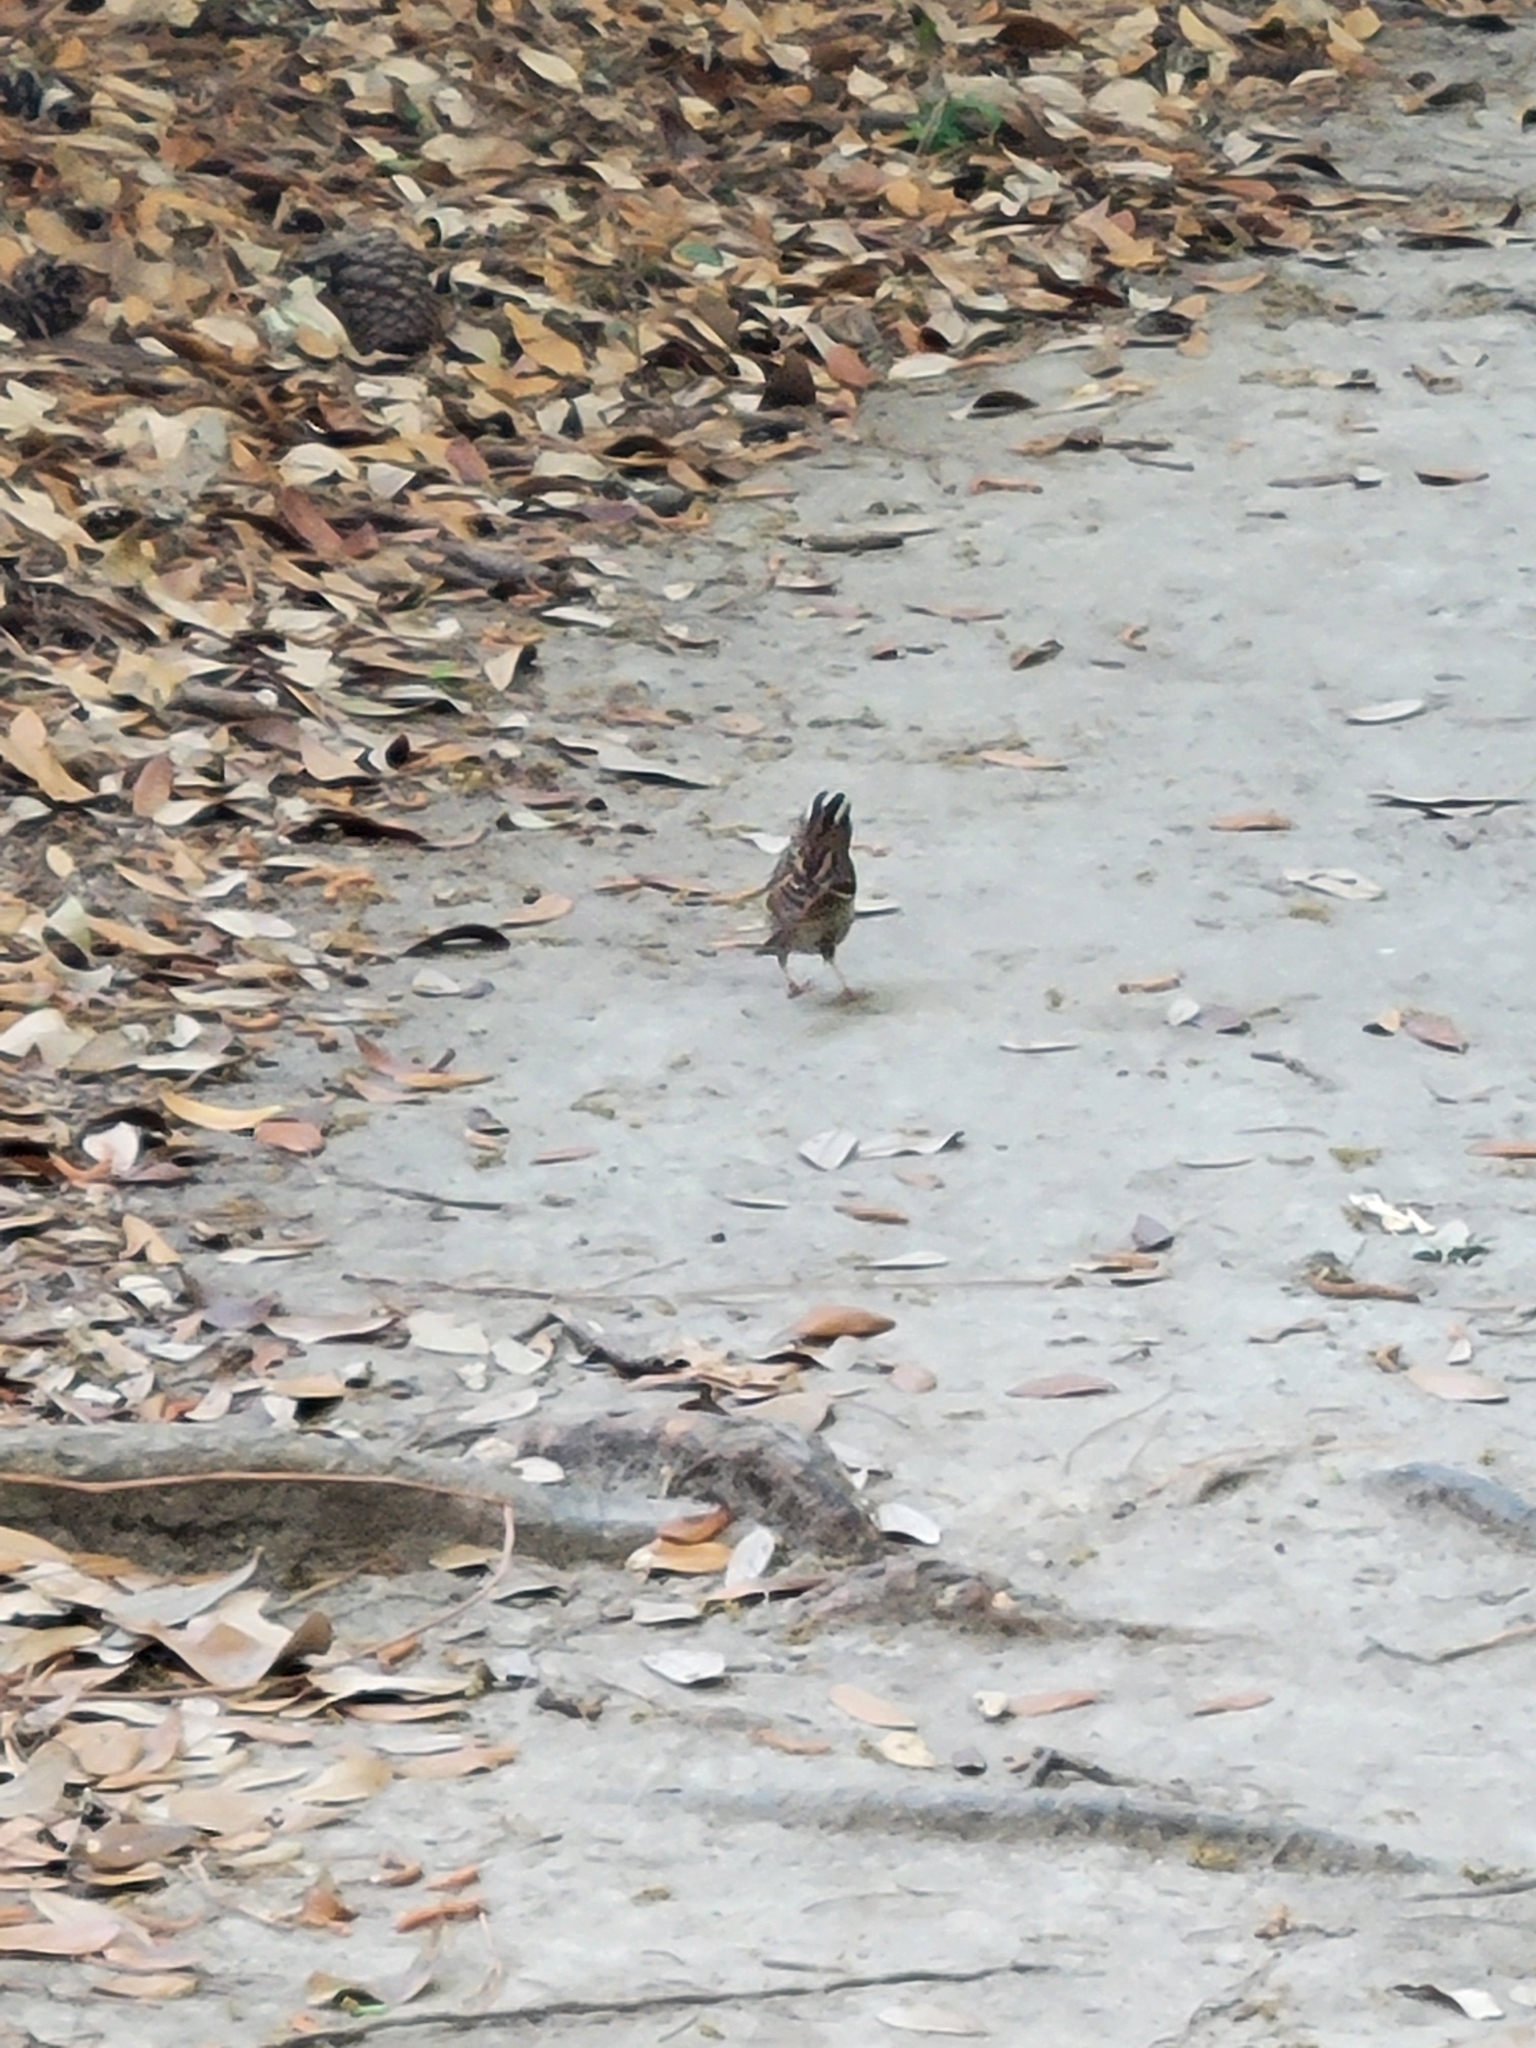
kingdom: Animalia
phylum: Chordata
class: Aves
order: Passeriformes
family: Passerellidae
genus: Zonotrichia
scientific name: Zonotrichia albicollis
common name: White-throated sparrow
